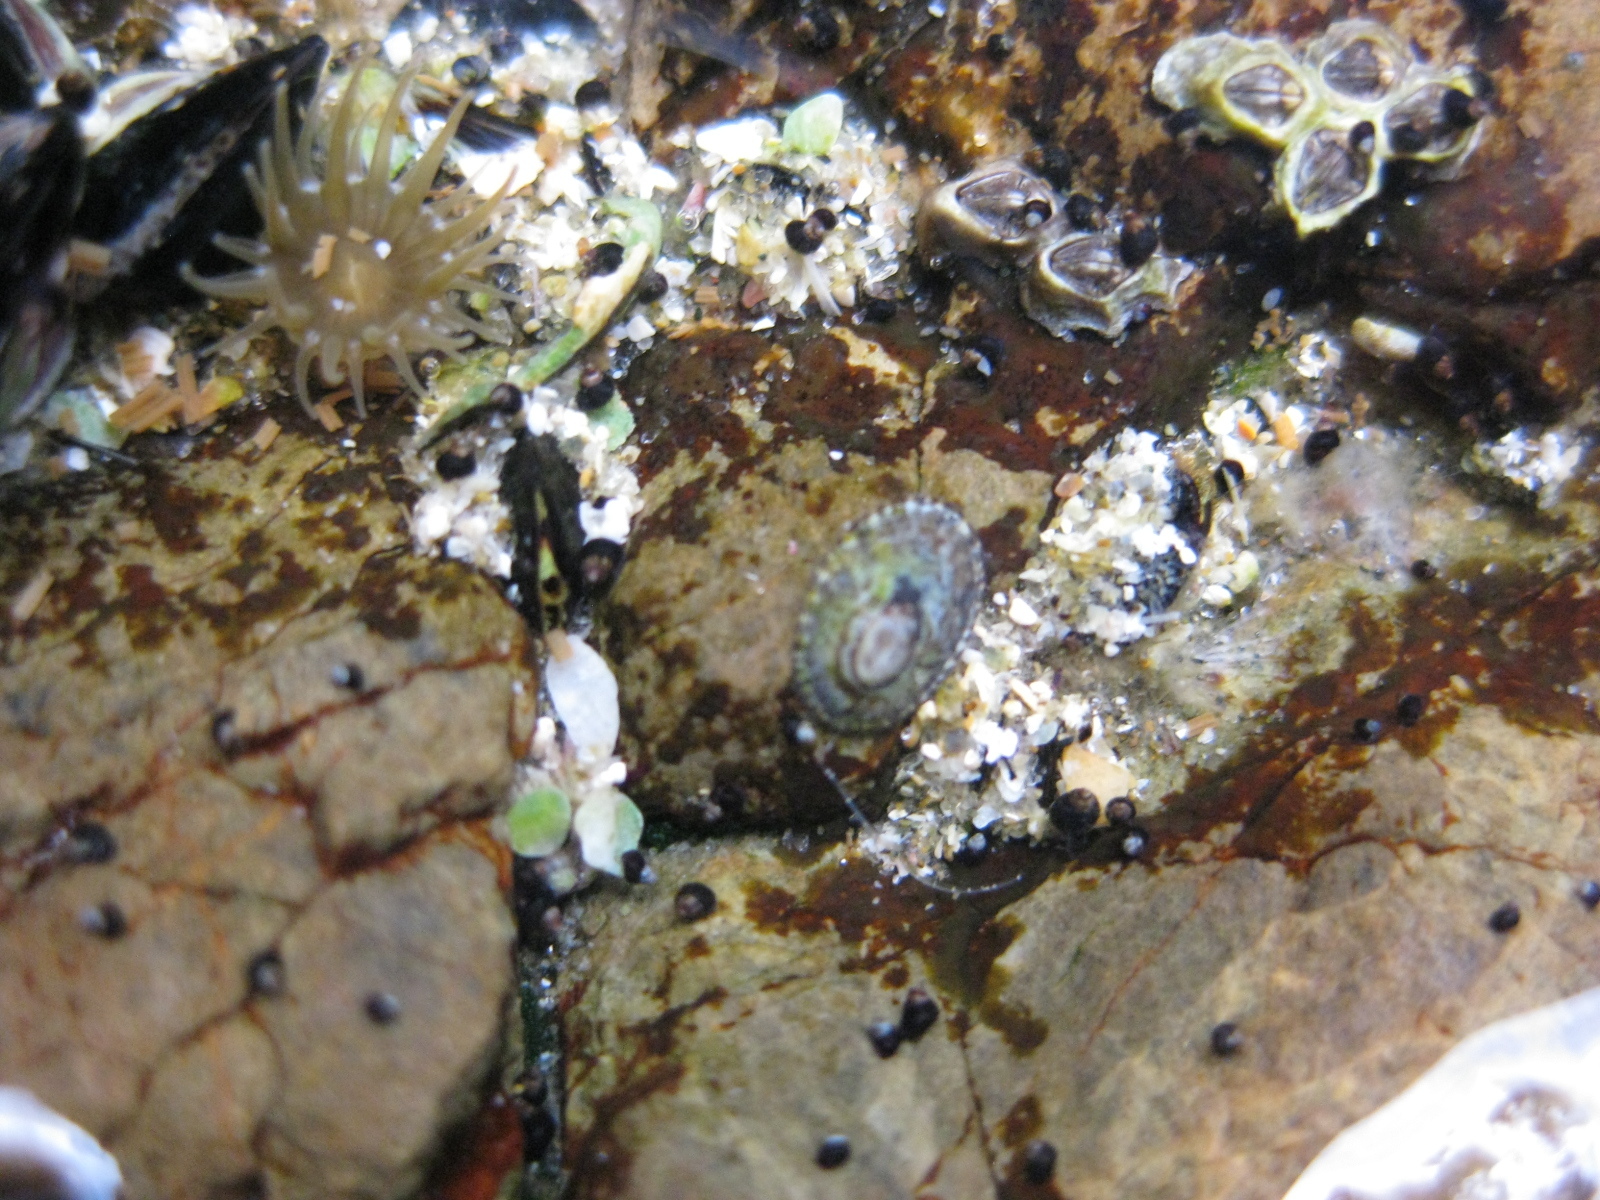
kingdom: Animalia
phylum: Mollusca
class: Gastropoda
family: Lottiidae
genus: Notoacmea
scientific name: Notoacmea
